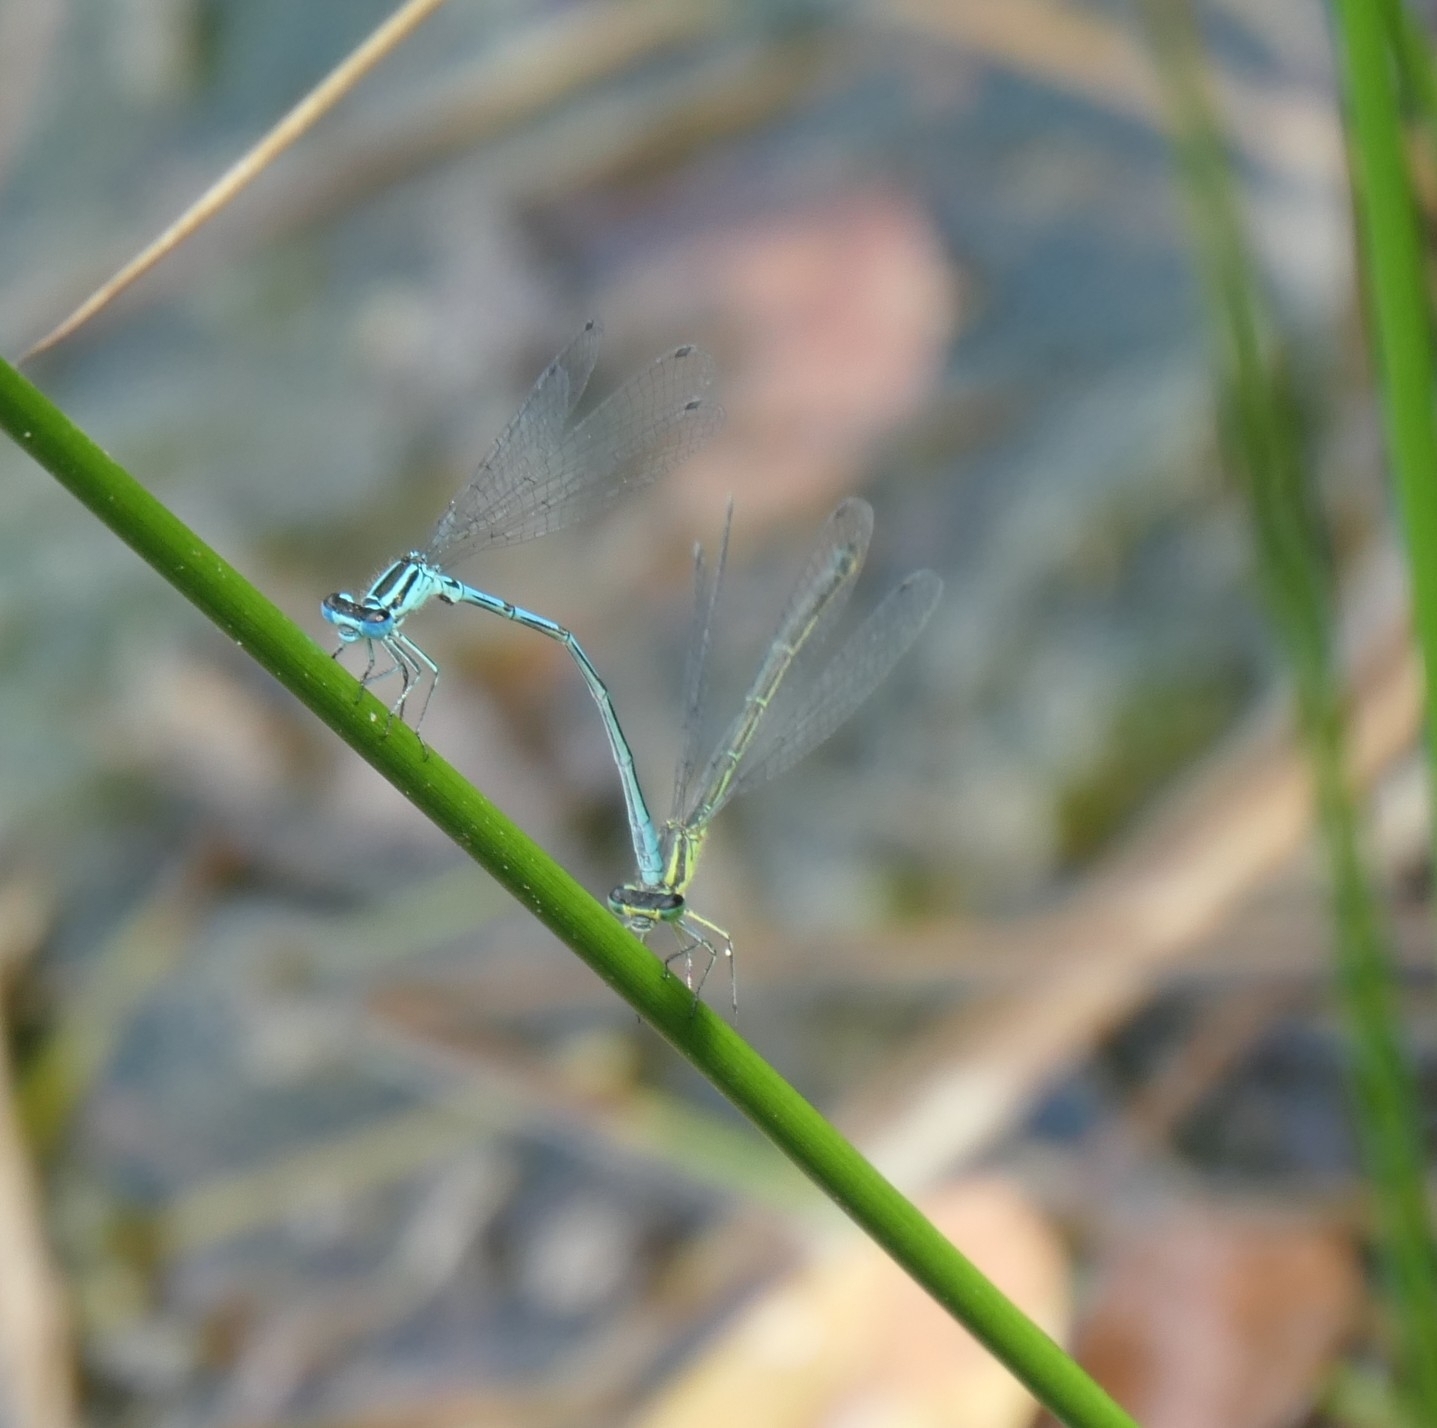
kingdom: Animalia
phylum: Arthropoda
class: Insecta
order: Odonata
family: Coenagrionidae
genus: Coenagrion
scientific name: Coenagrion puella
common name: Azure damselfly
